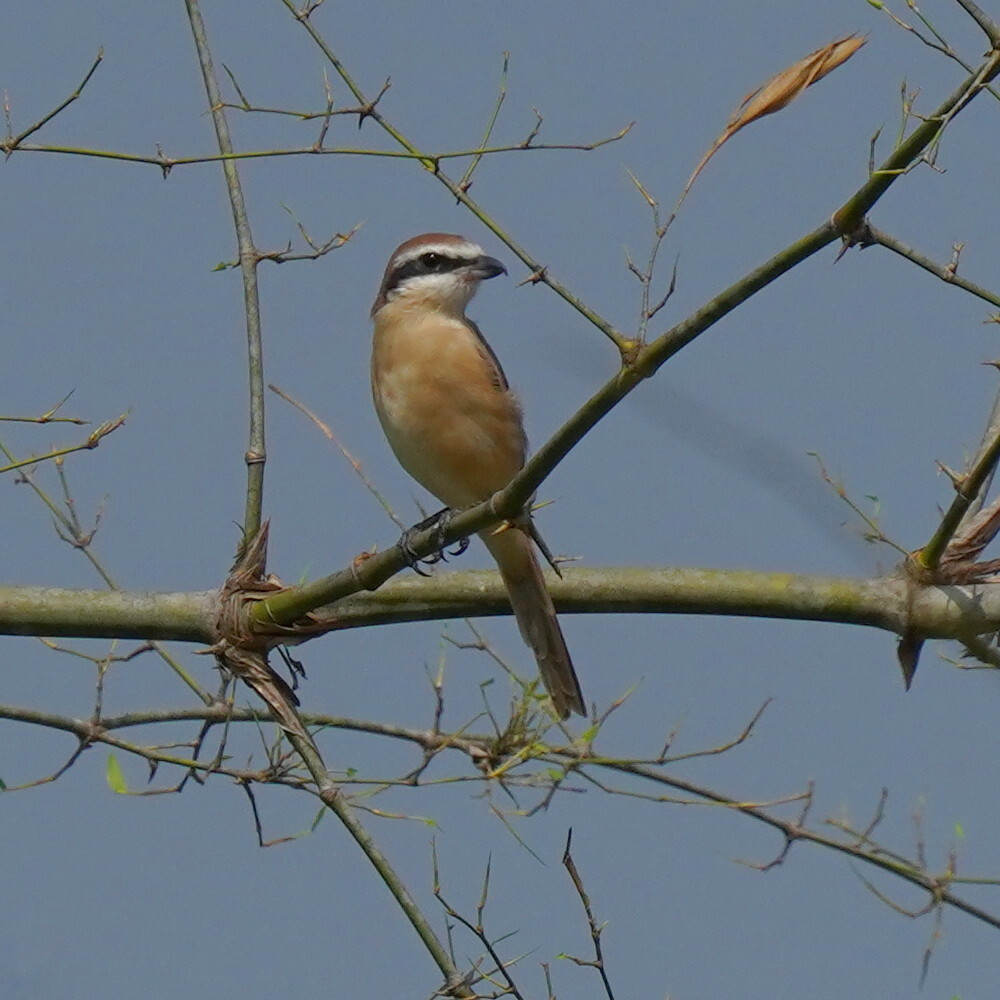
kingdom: Animalia
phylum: Chordata
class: Aves
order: Passeriformes
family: Laniidae
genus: Lanius
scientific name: Lanius cristatus
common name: Brown shrike
